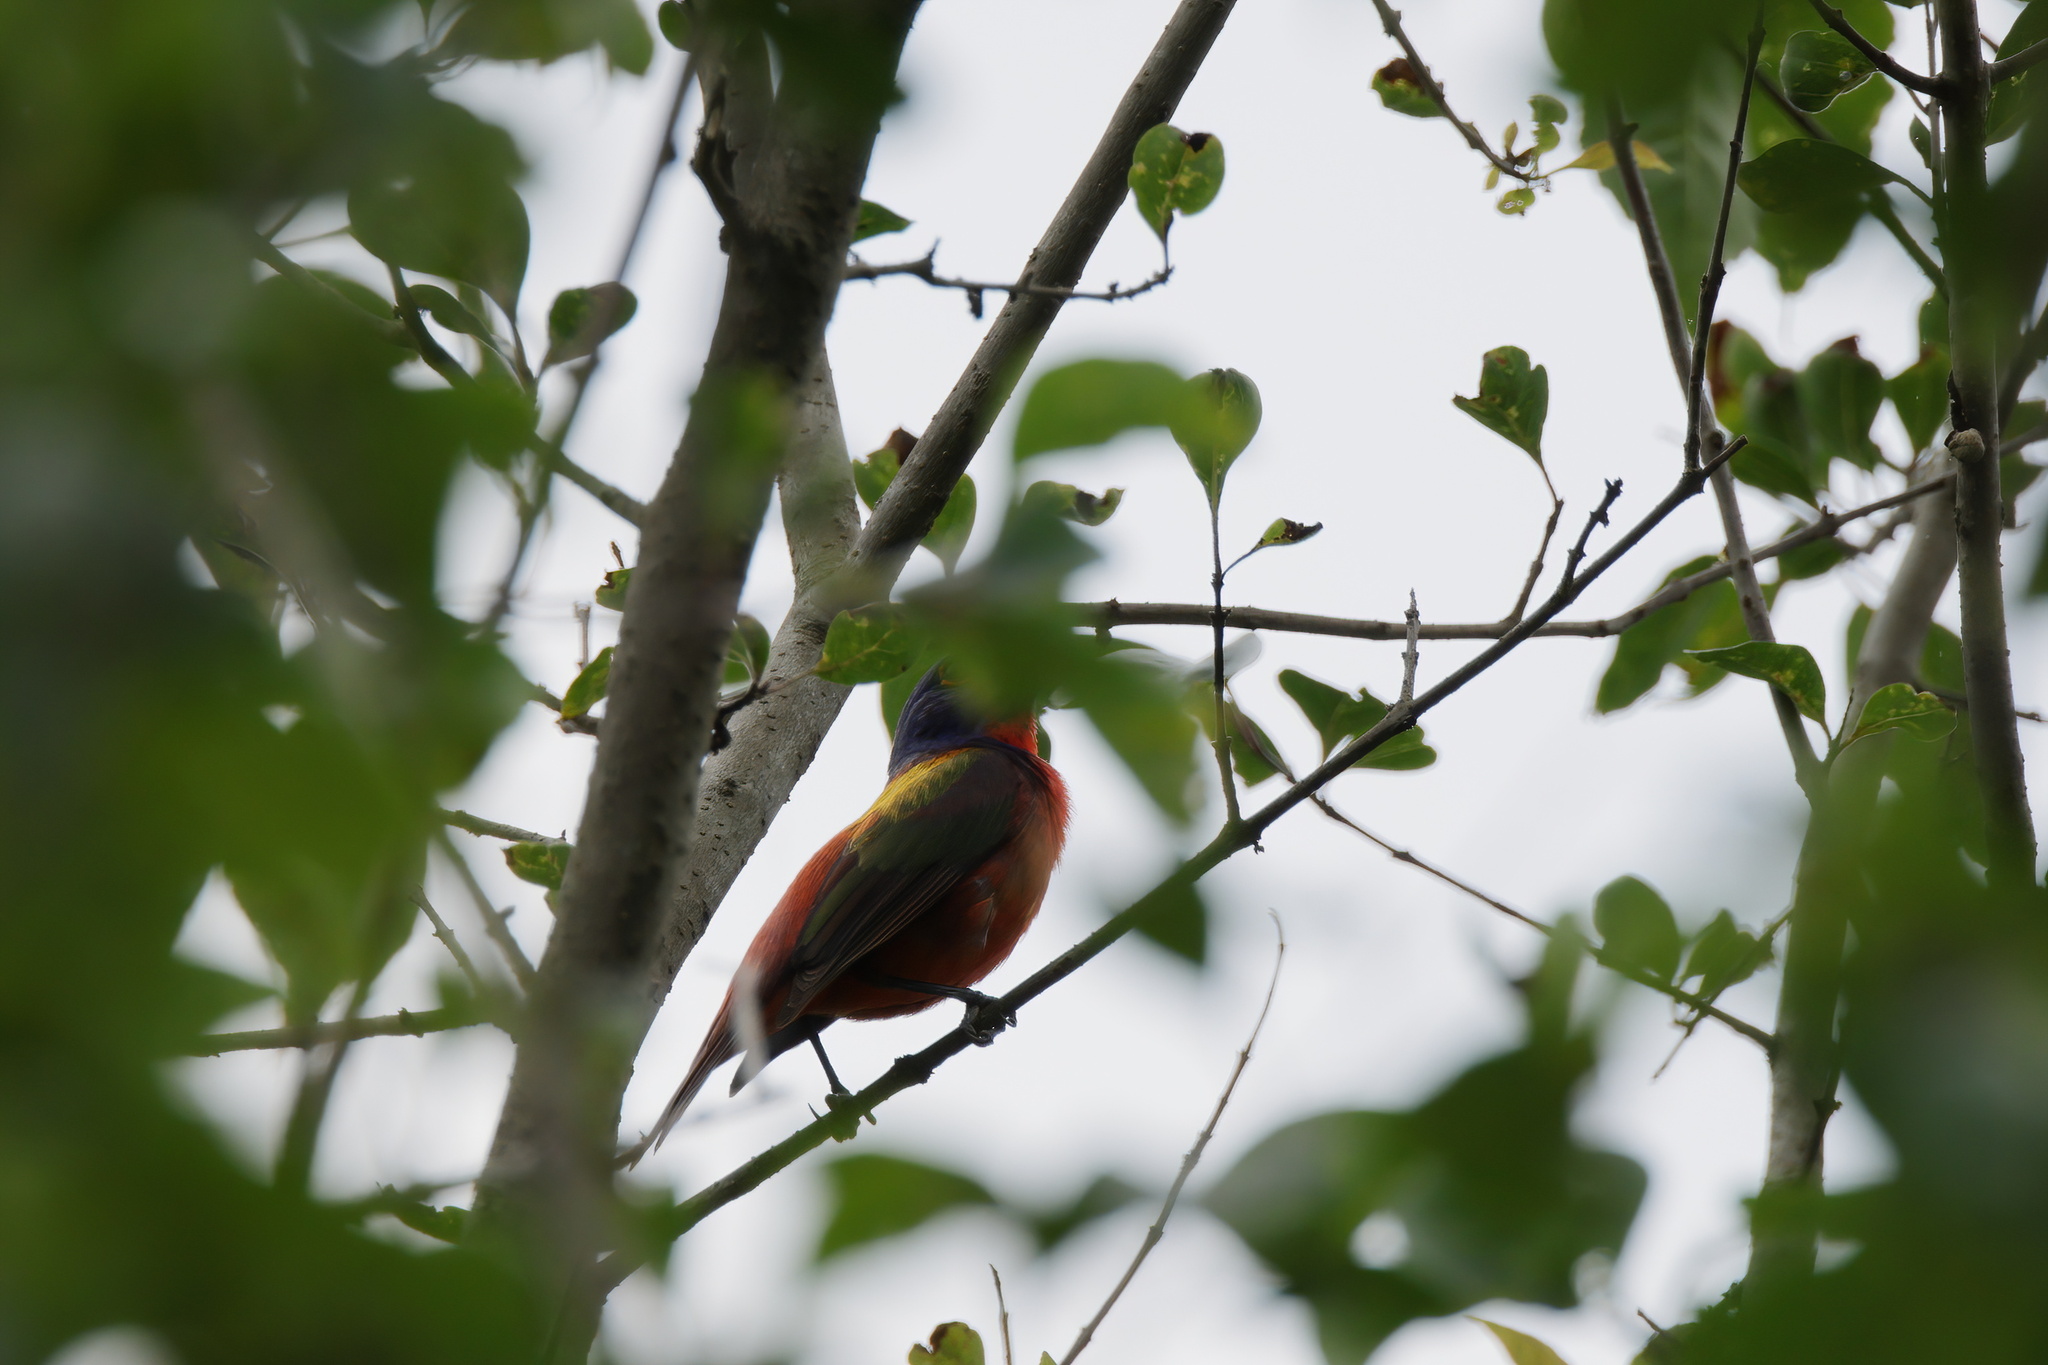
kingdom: Animalia
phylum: Chordata
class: Aves
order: Passeriformes
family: Cardinalidae
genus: Passerina
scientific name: Passerina ciris
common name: Painted bunting
